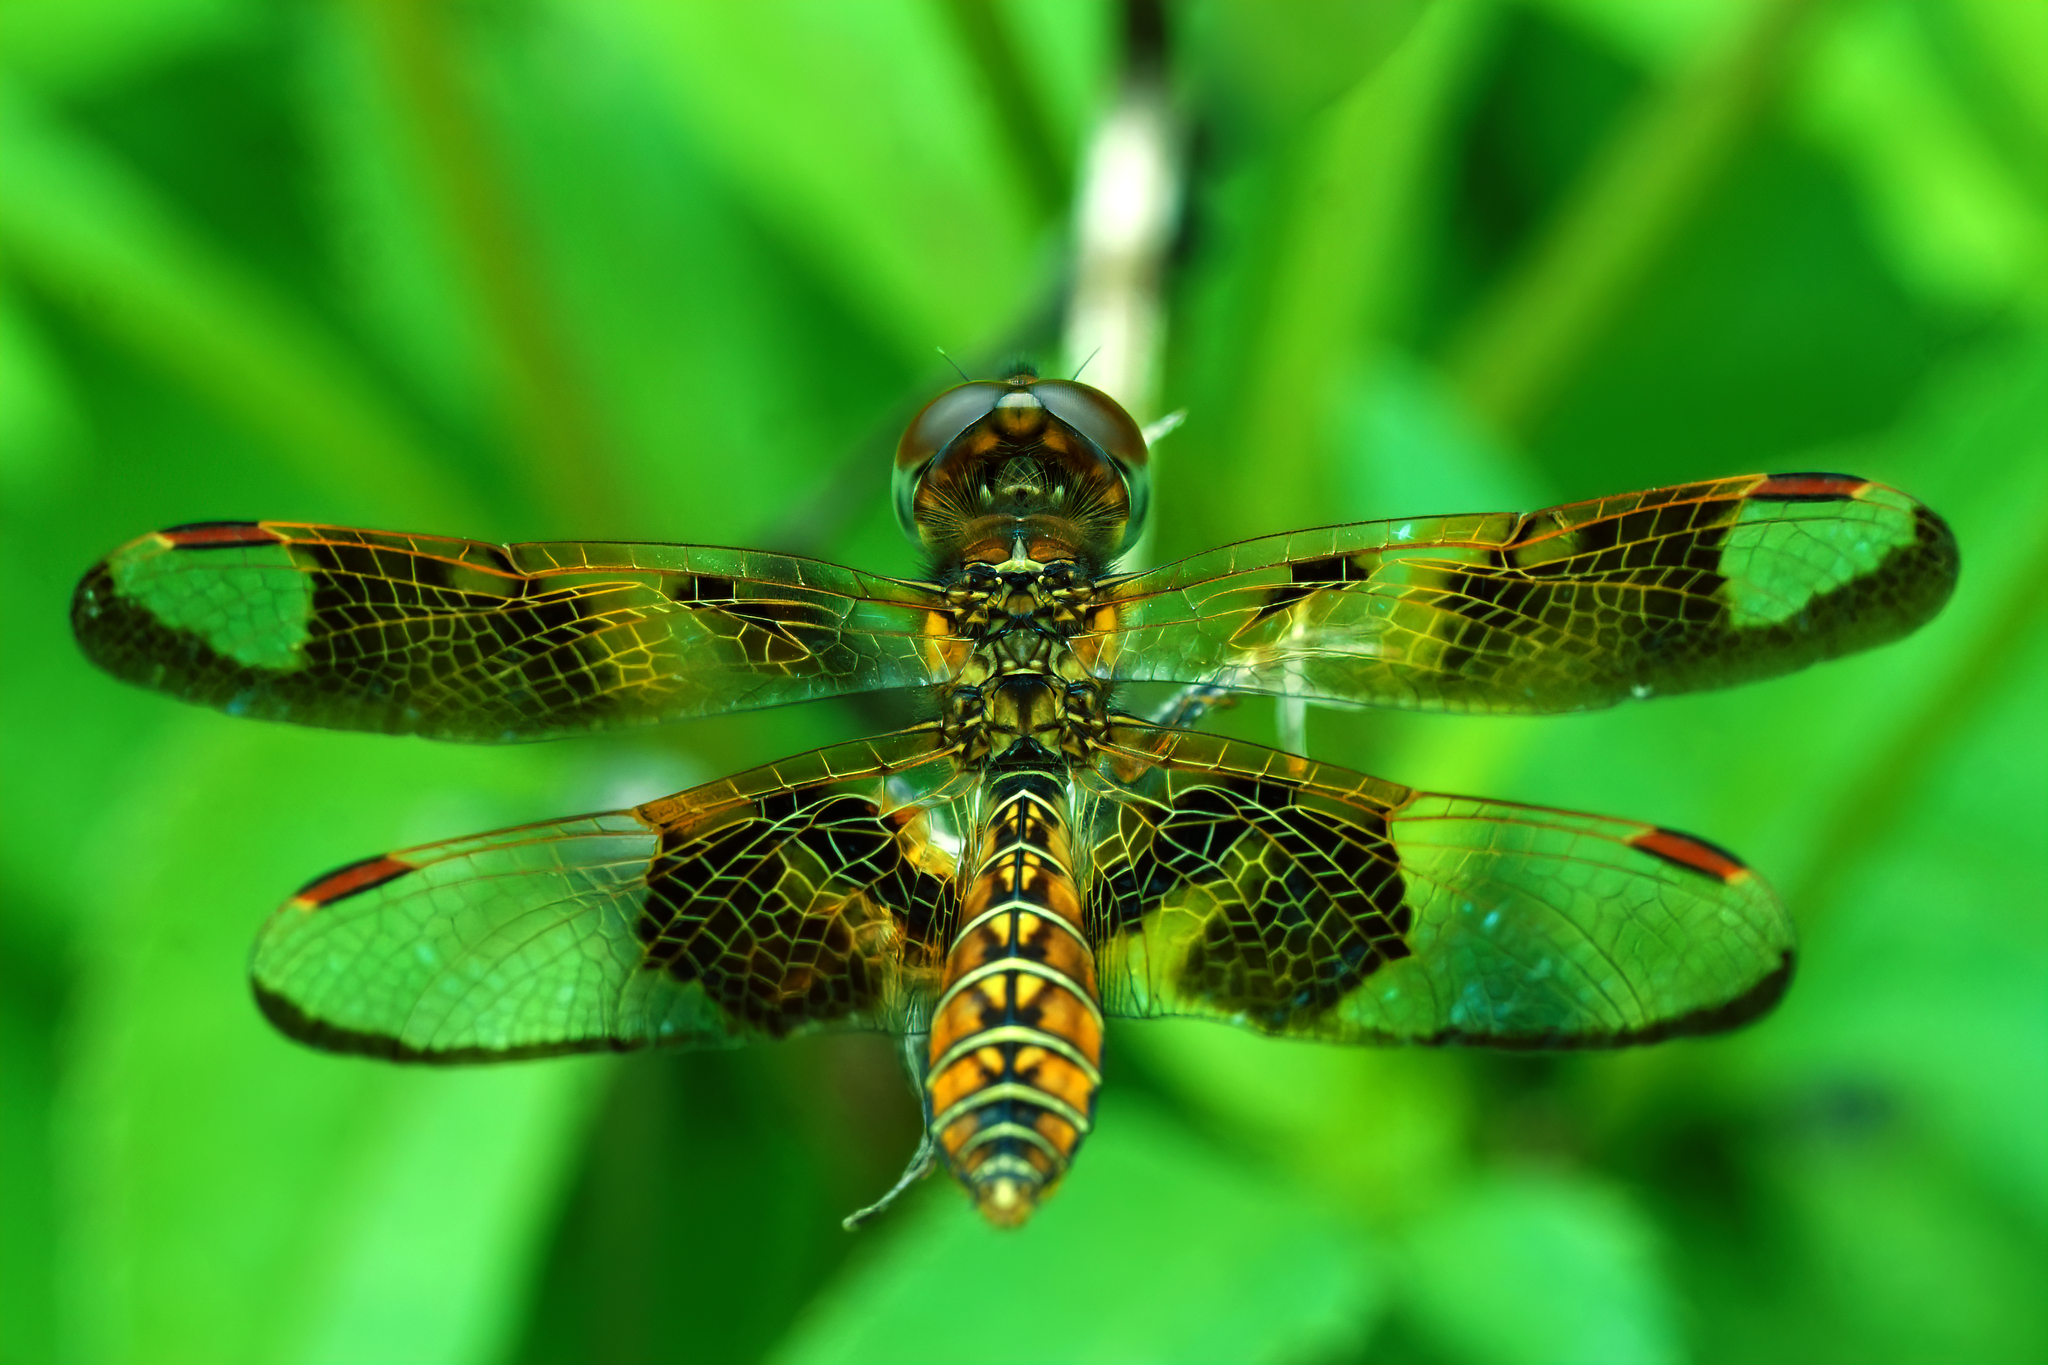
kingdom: Animalia
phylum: Arthropoda
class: Insecta
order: Odonata
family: Libellulidae
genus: Perithemis
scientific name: Perithemis tenera
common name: Eastern amberwing
